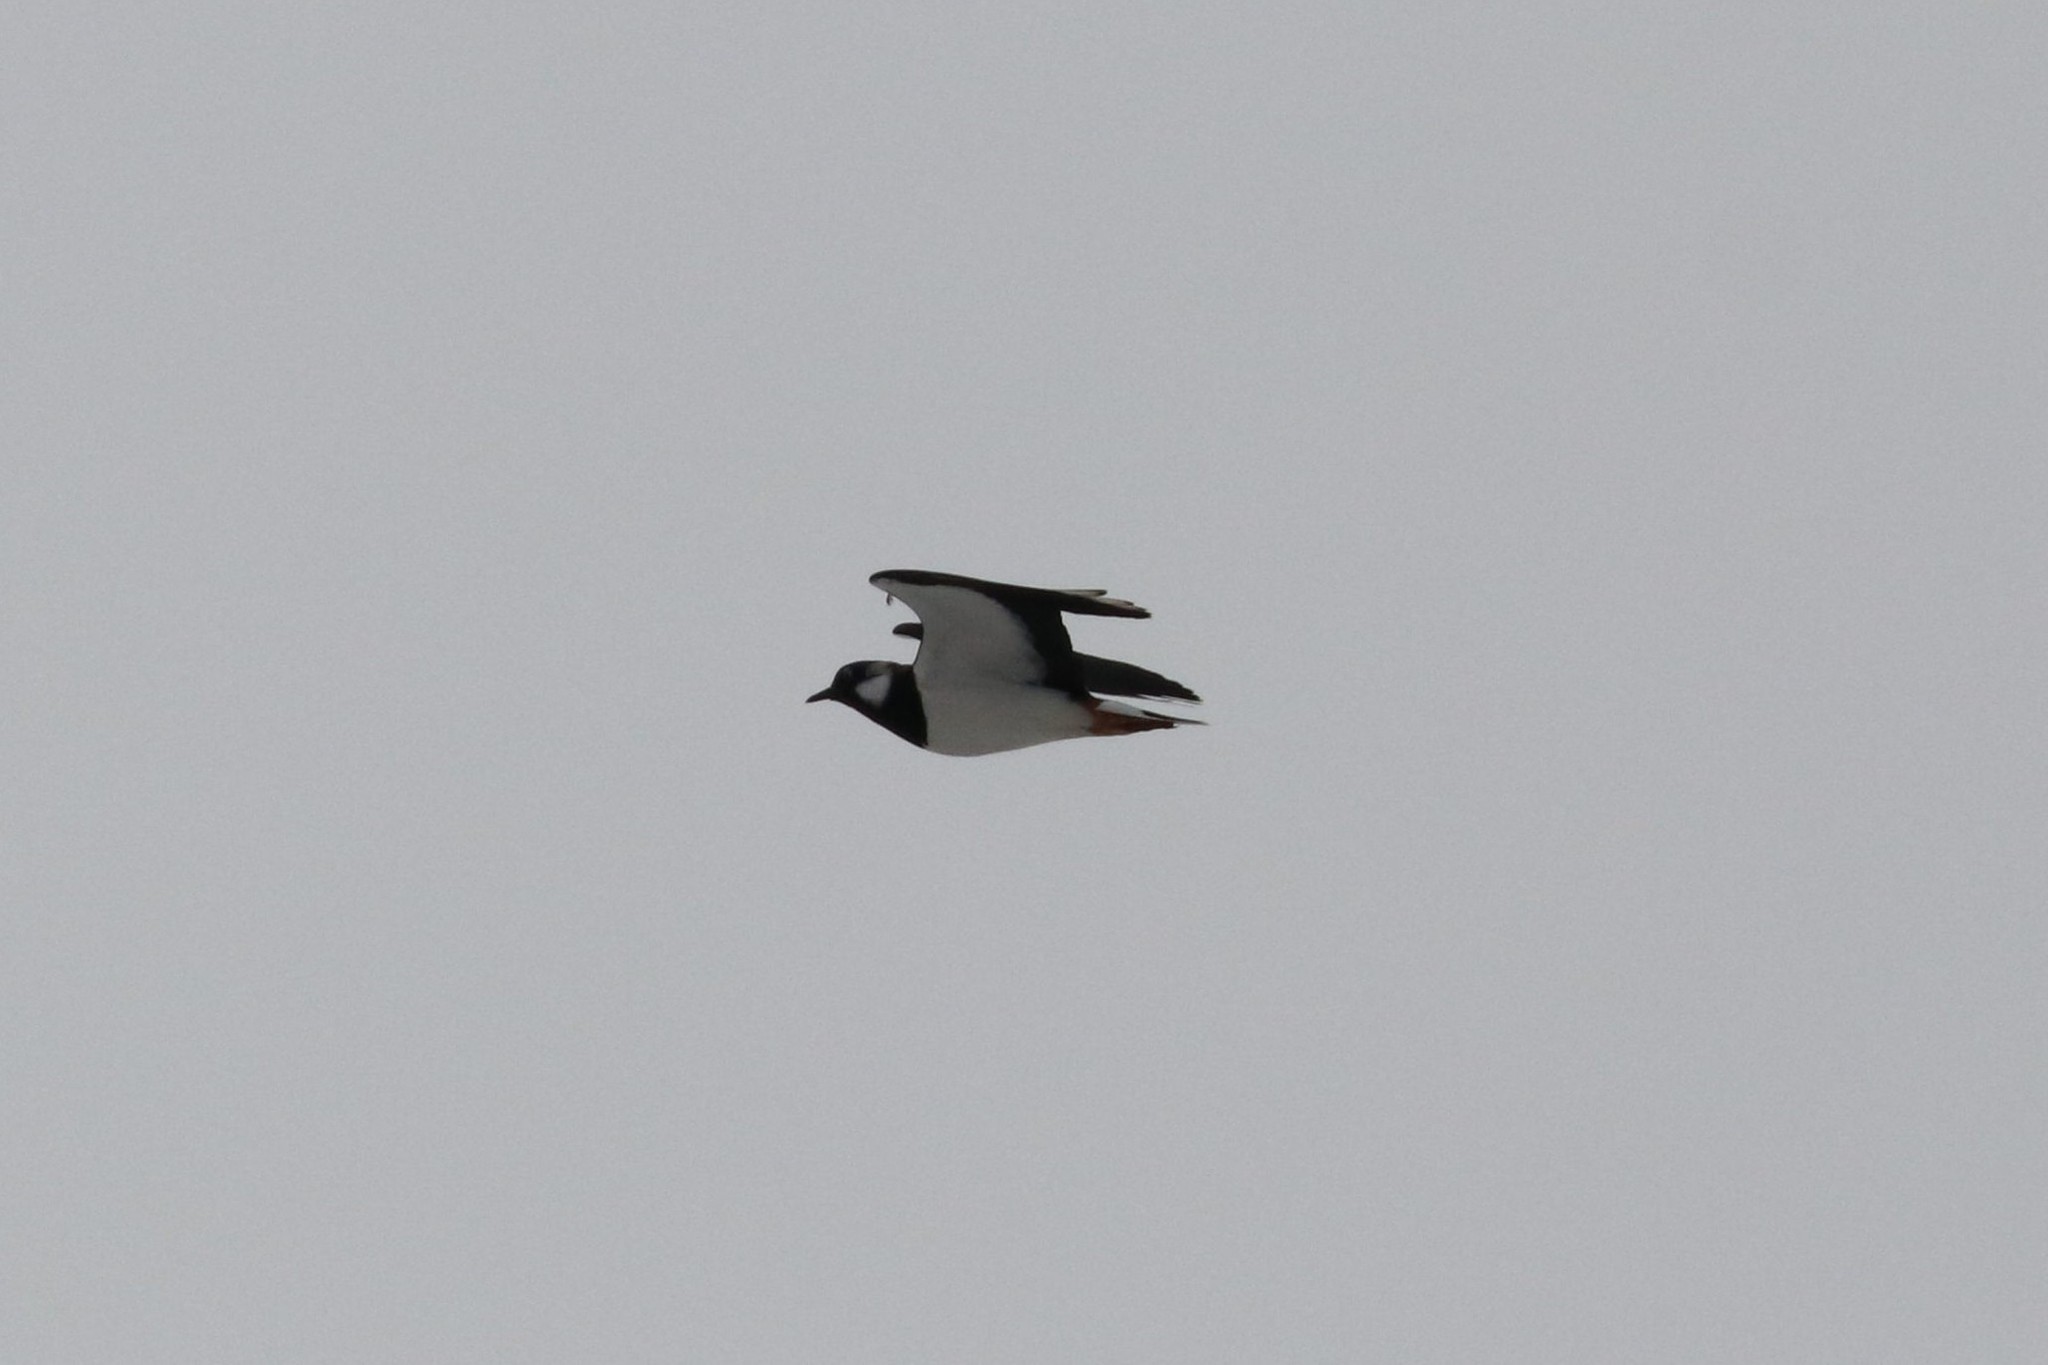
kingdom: Animalia
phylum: Chordata
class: Aves
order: Charadriiformes
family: Charadriidae
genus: Vanellus
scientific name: Vanellus vanellus
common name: Northern lapwing
